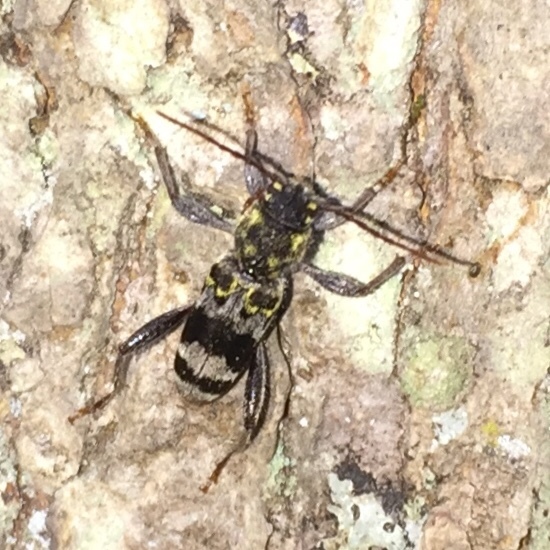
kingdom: Animalia
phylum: Arthropoda
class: Insecta
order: Coleoptera
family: Cerambycidae
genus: Xylotrechus
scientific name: Xylotrechus colonus
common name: Long-horned beetle
